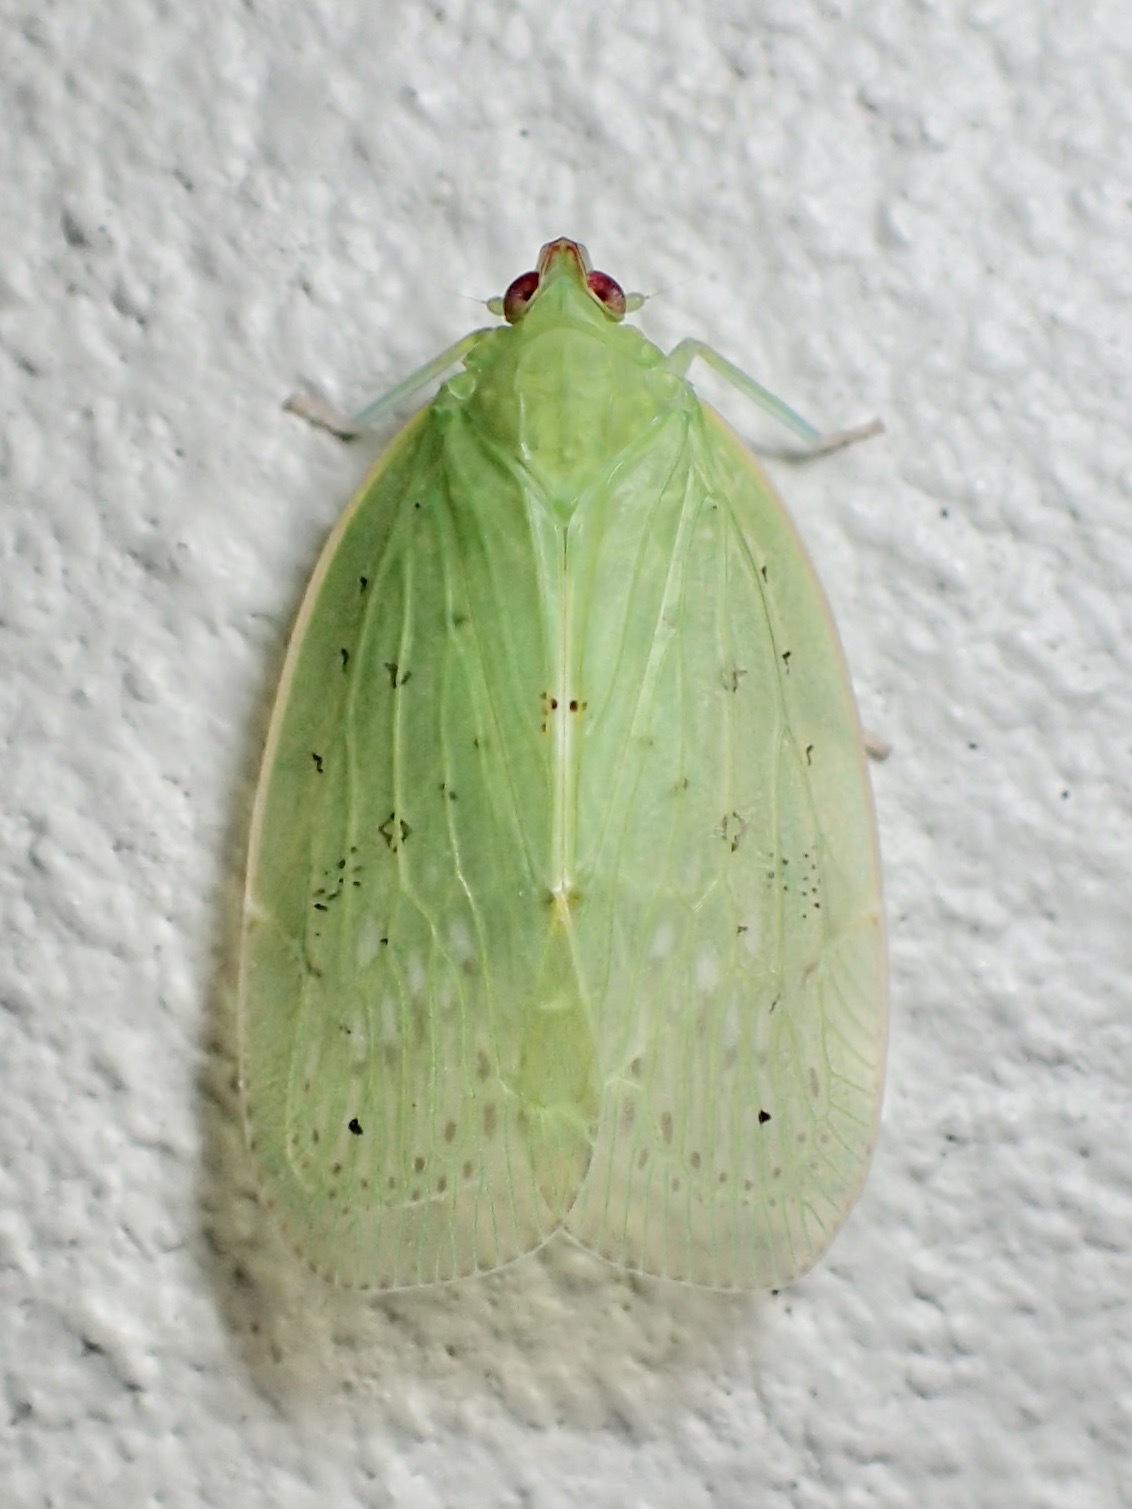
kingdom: Animalia
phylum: Arthropoda
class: Insecta
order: Hemiptera
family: Achilidae
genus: Epiona
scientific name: Epiona kirejtshuki
